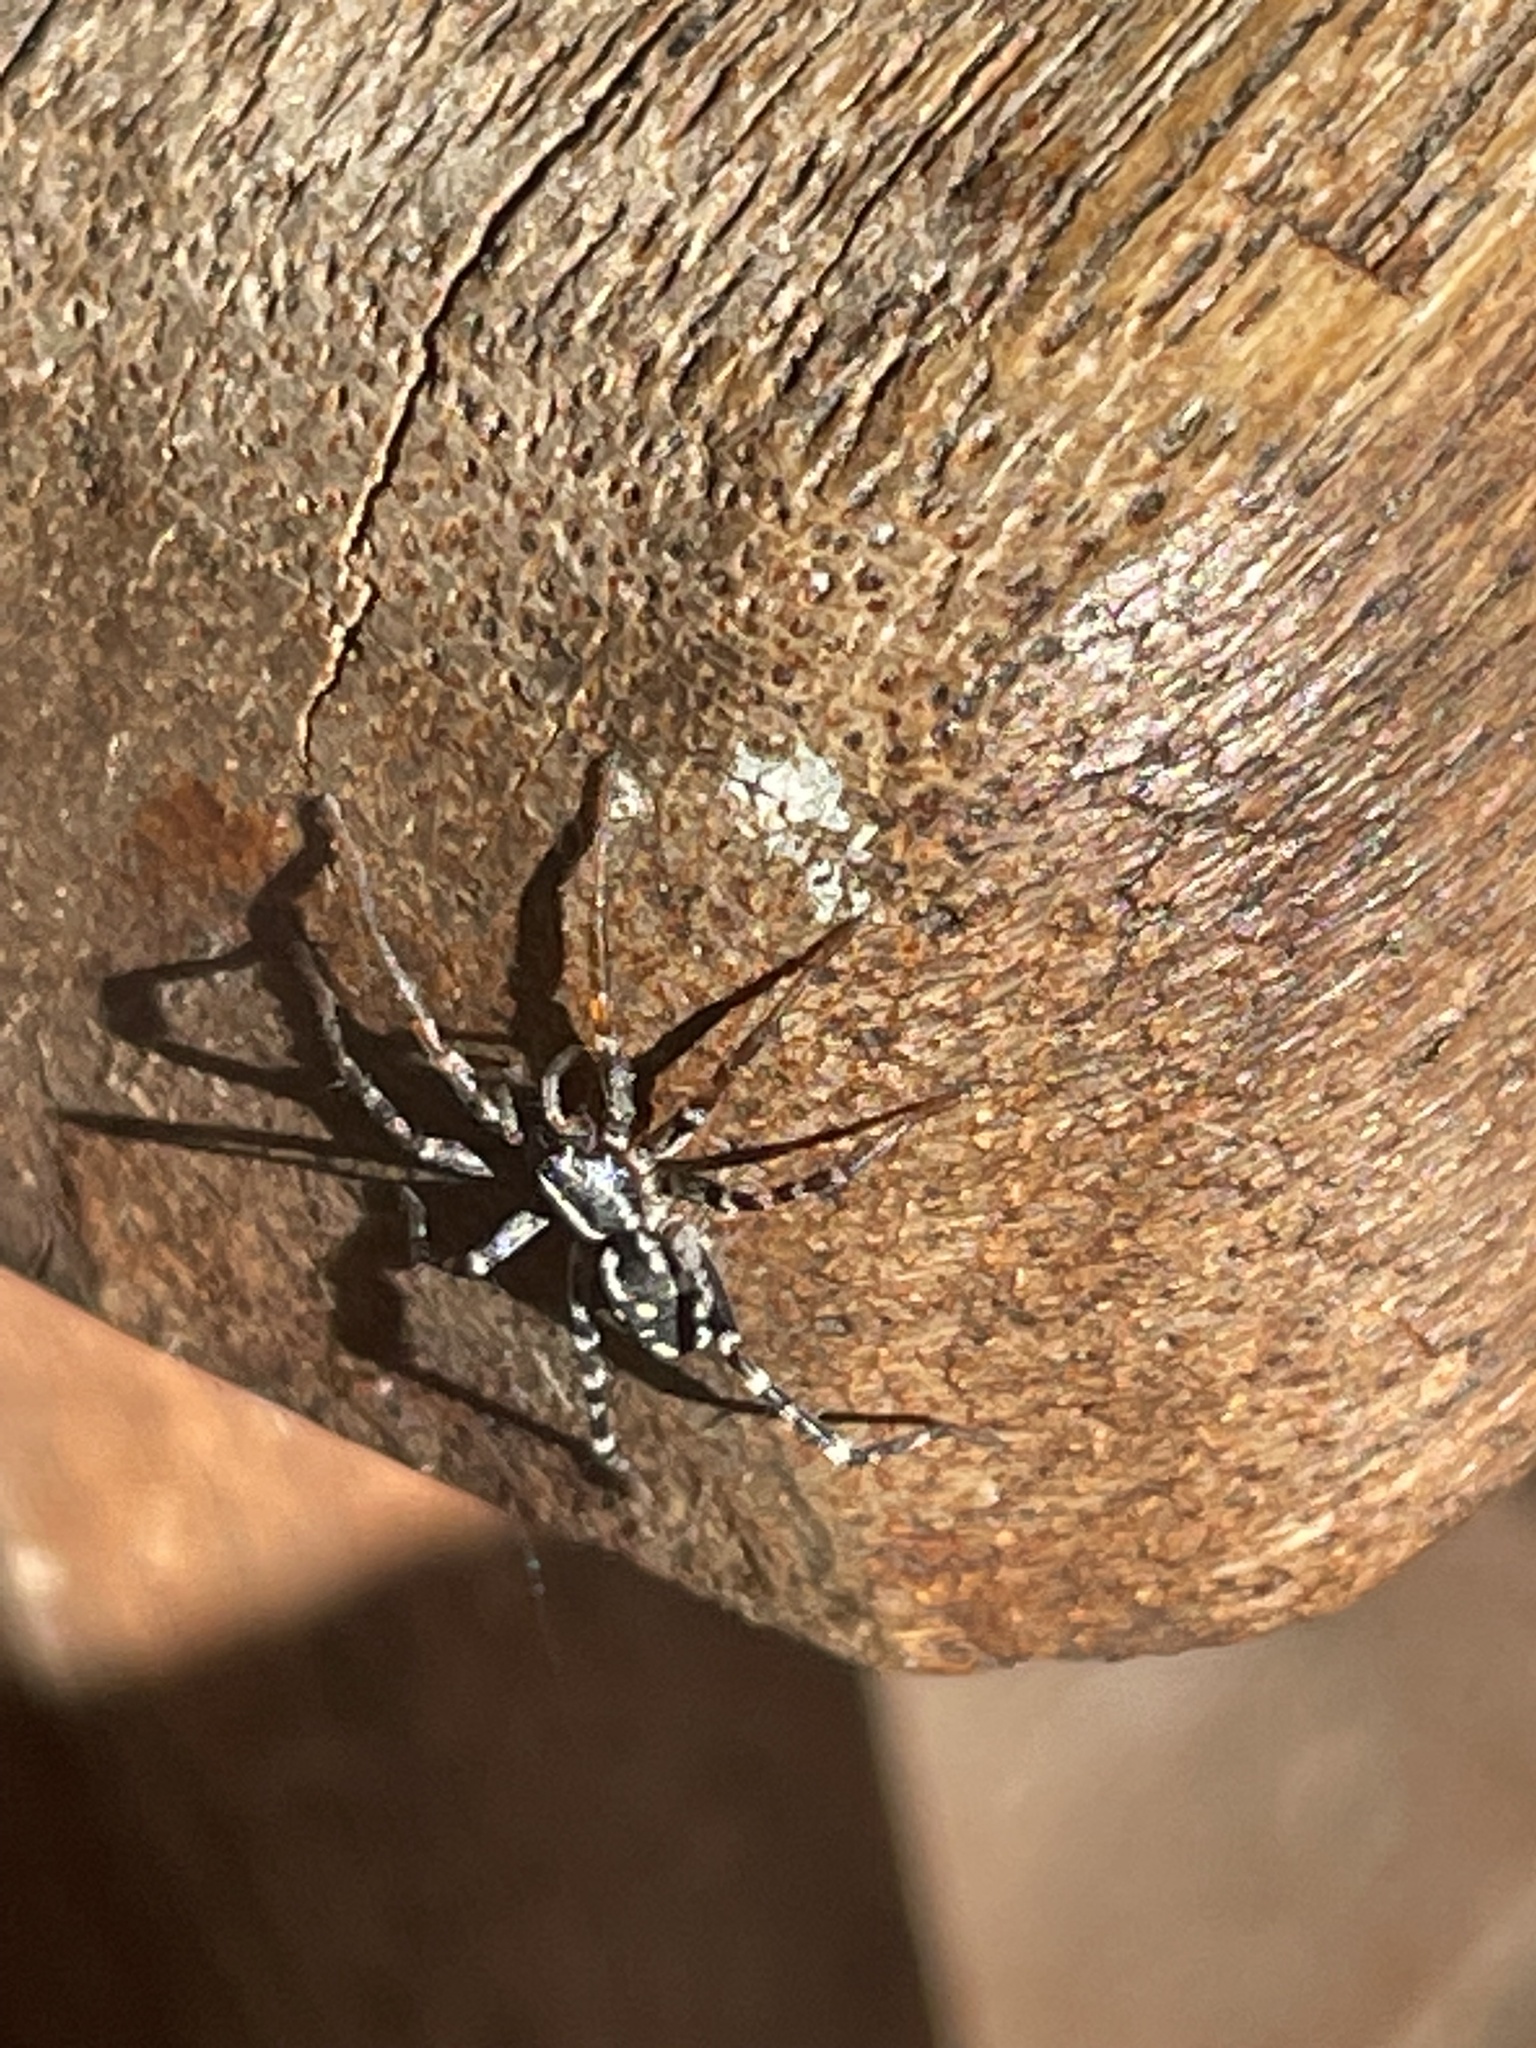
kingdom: Animalia
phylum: Arthropoda
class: Arachnida
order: Araneae
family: Corinnidae
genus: Nyssus
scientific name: Nyssus coloripes
